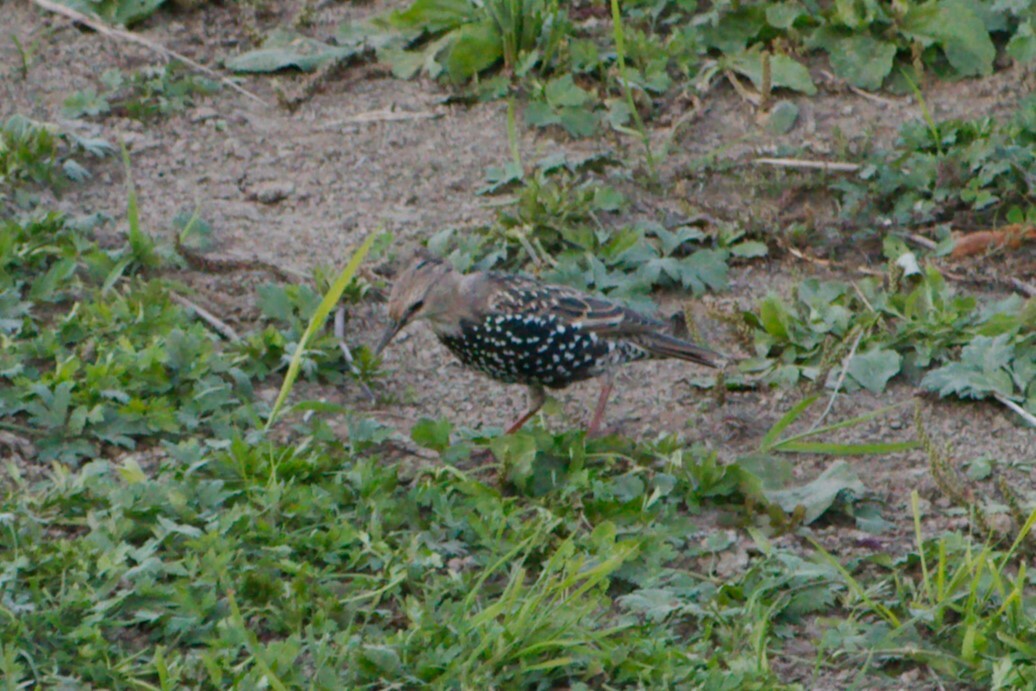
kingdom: Animalia
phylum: Chordata
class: Aves
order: Passeriformes
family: Sturnidae
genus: Sturnus
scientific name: Sturnus vulgaris
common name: Common starling
